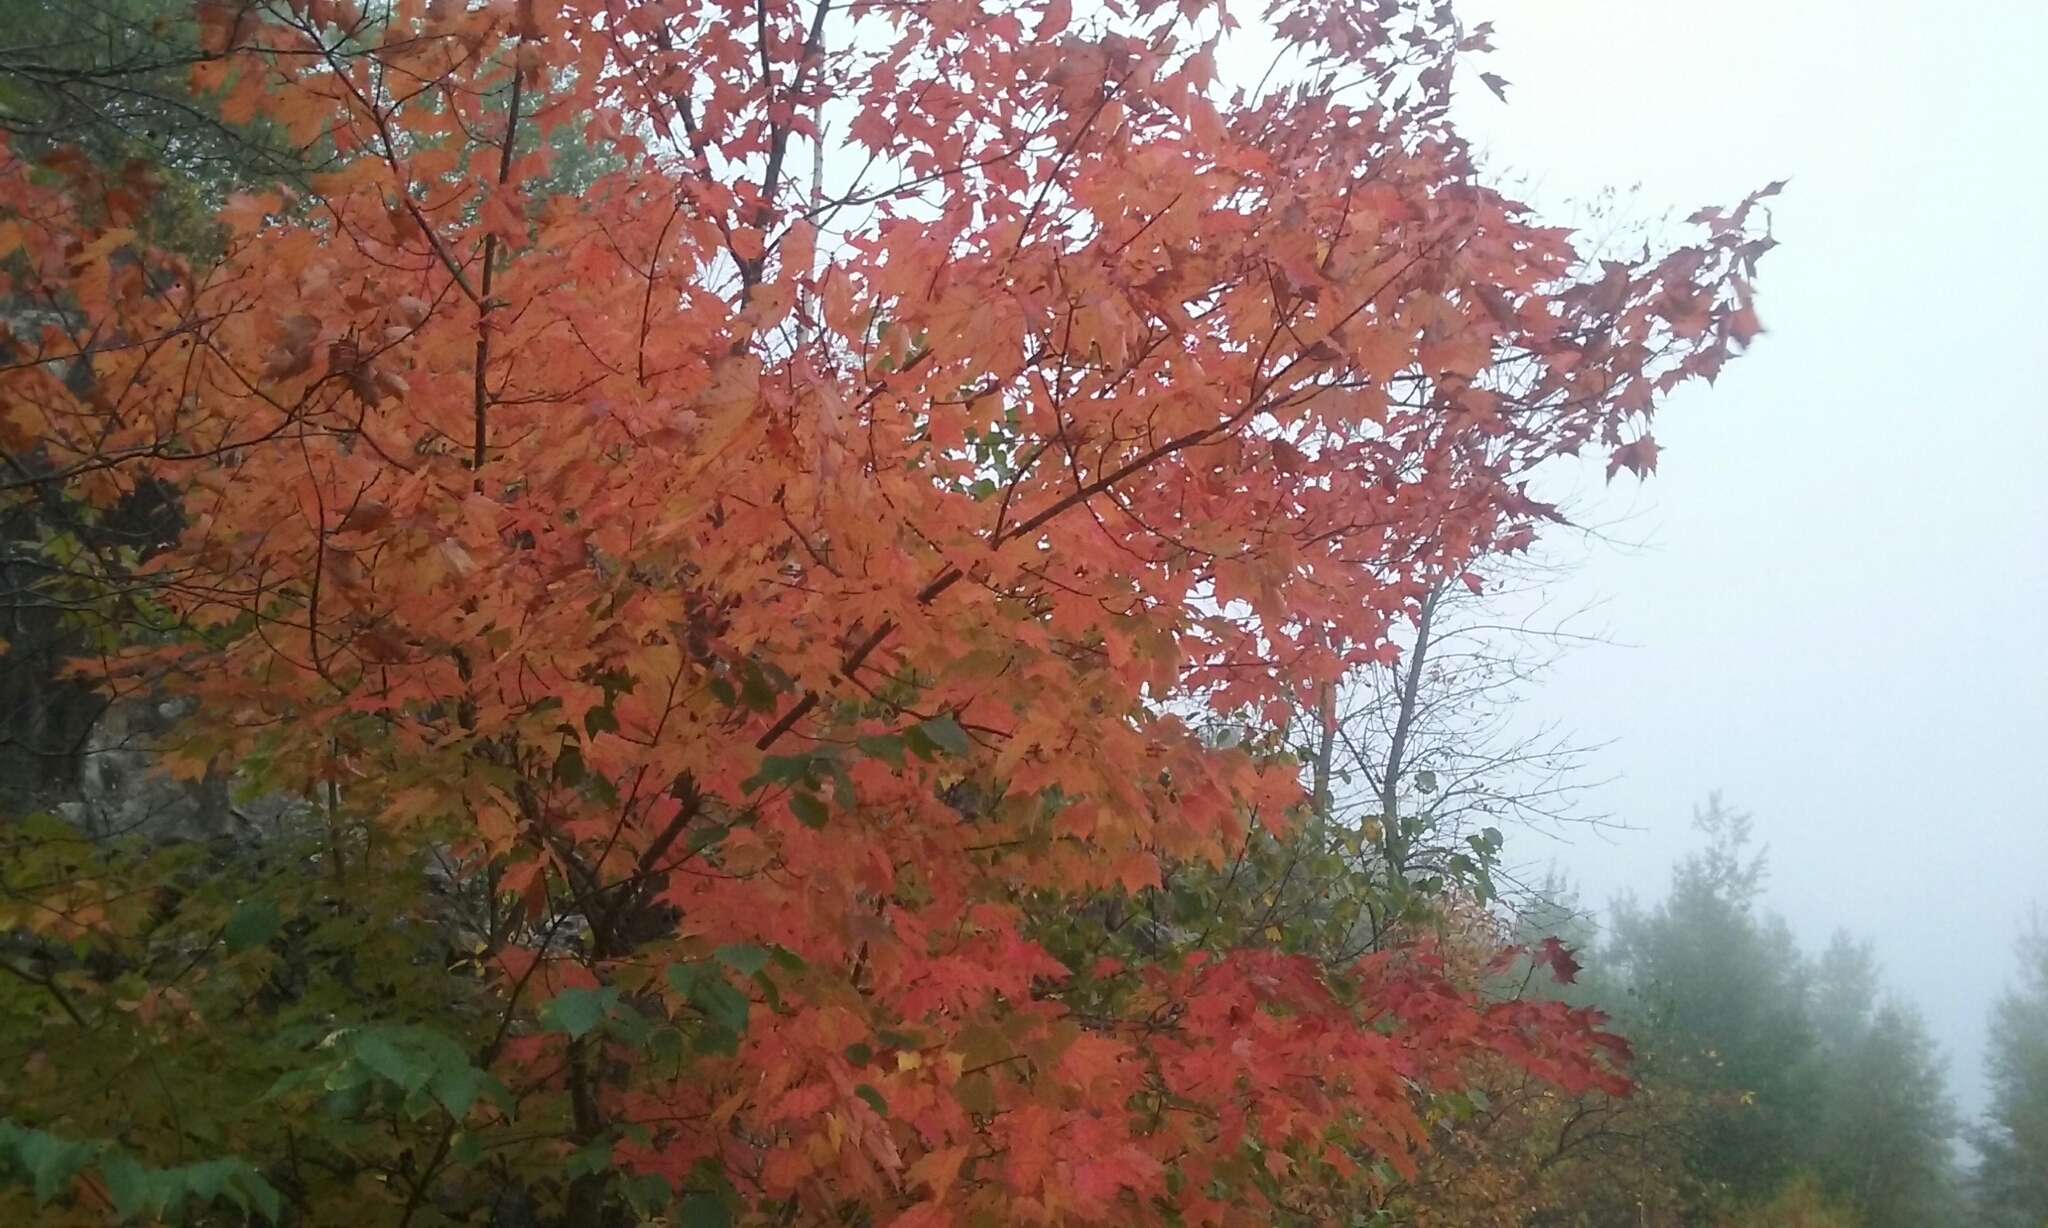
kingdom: Plantae
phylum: Tracheophyta
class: Magnoliopsida
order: Sapindales
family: Sapindaceae
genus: Acer
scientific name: Acer rubrum
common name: Red maple
